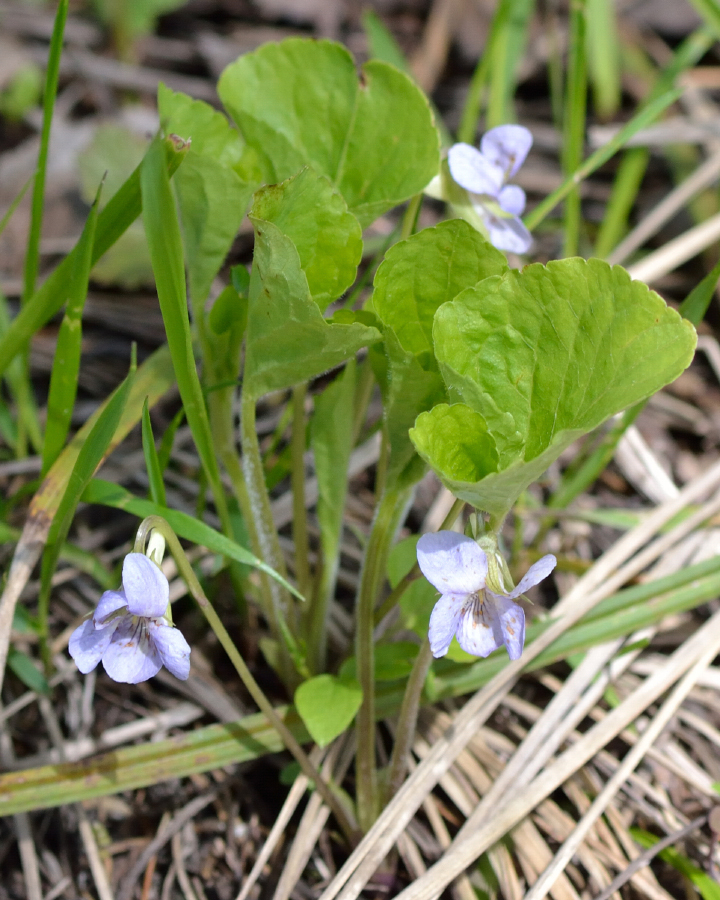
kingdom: Plantae
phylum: Tracheophyta
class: Magnoliopsida
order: Malpighiales
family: Violaceae
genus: Viola
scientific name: Viola mirabilis
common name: Wonder violet
